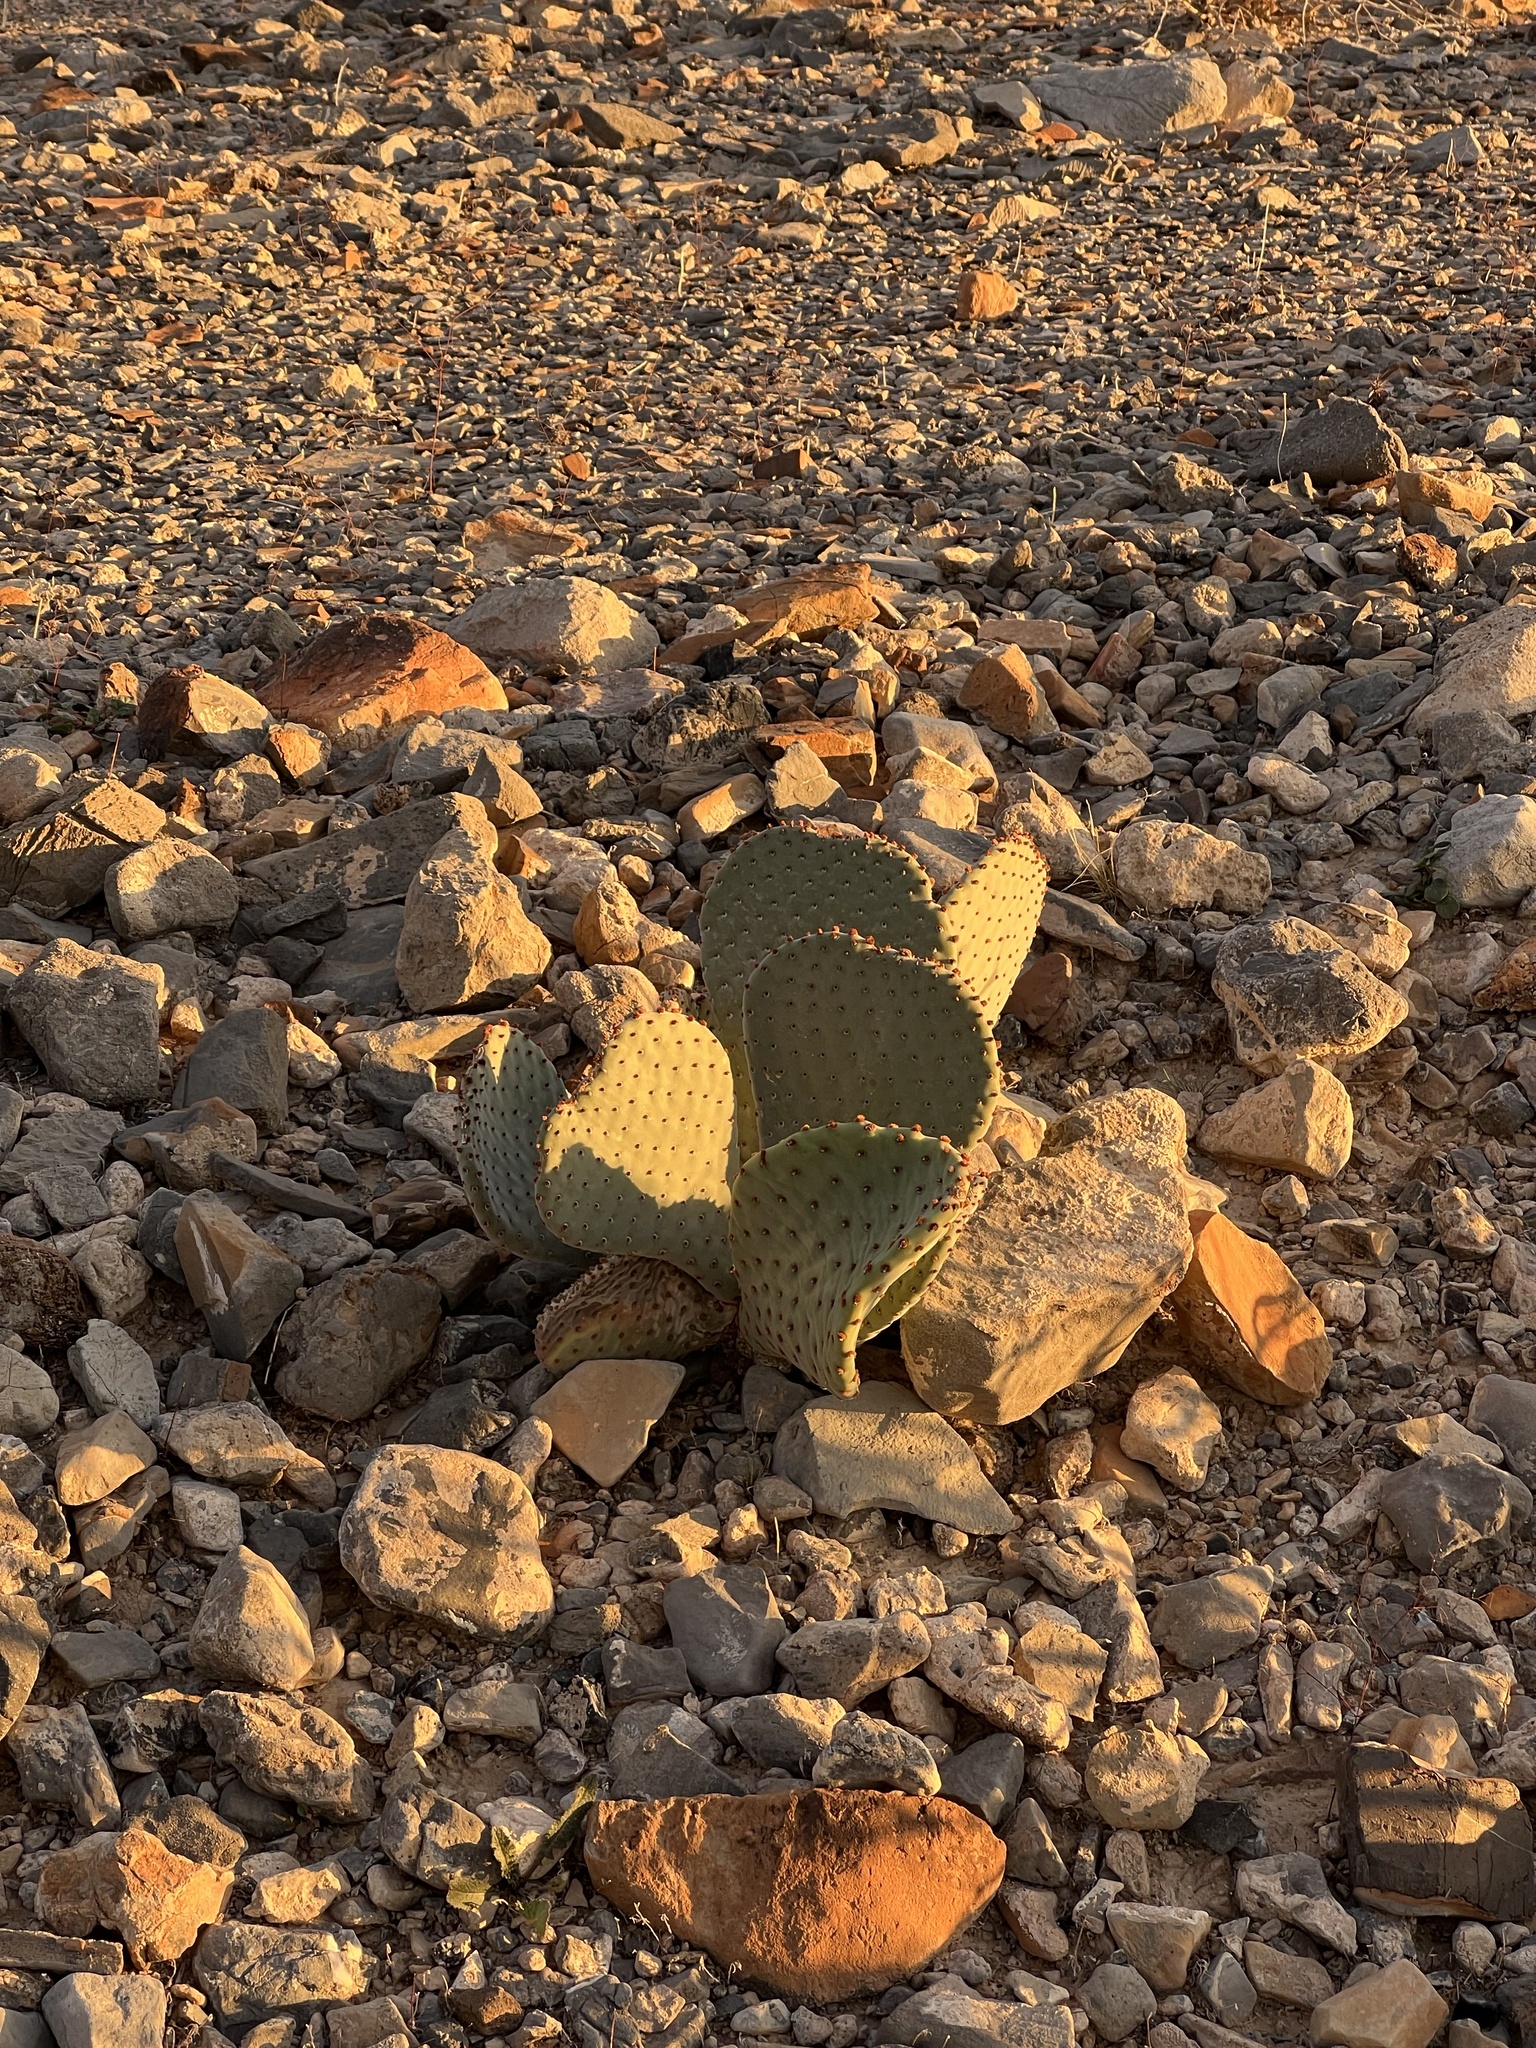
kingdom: Plantae
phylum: Tracheophyta
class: Magnoliopsida
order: Caryophyllales
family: Cactaceae
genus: Opuntia
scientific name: Opuntia basilaris
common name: Beavertail prickly-pear
